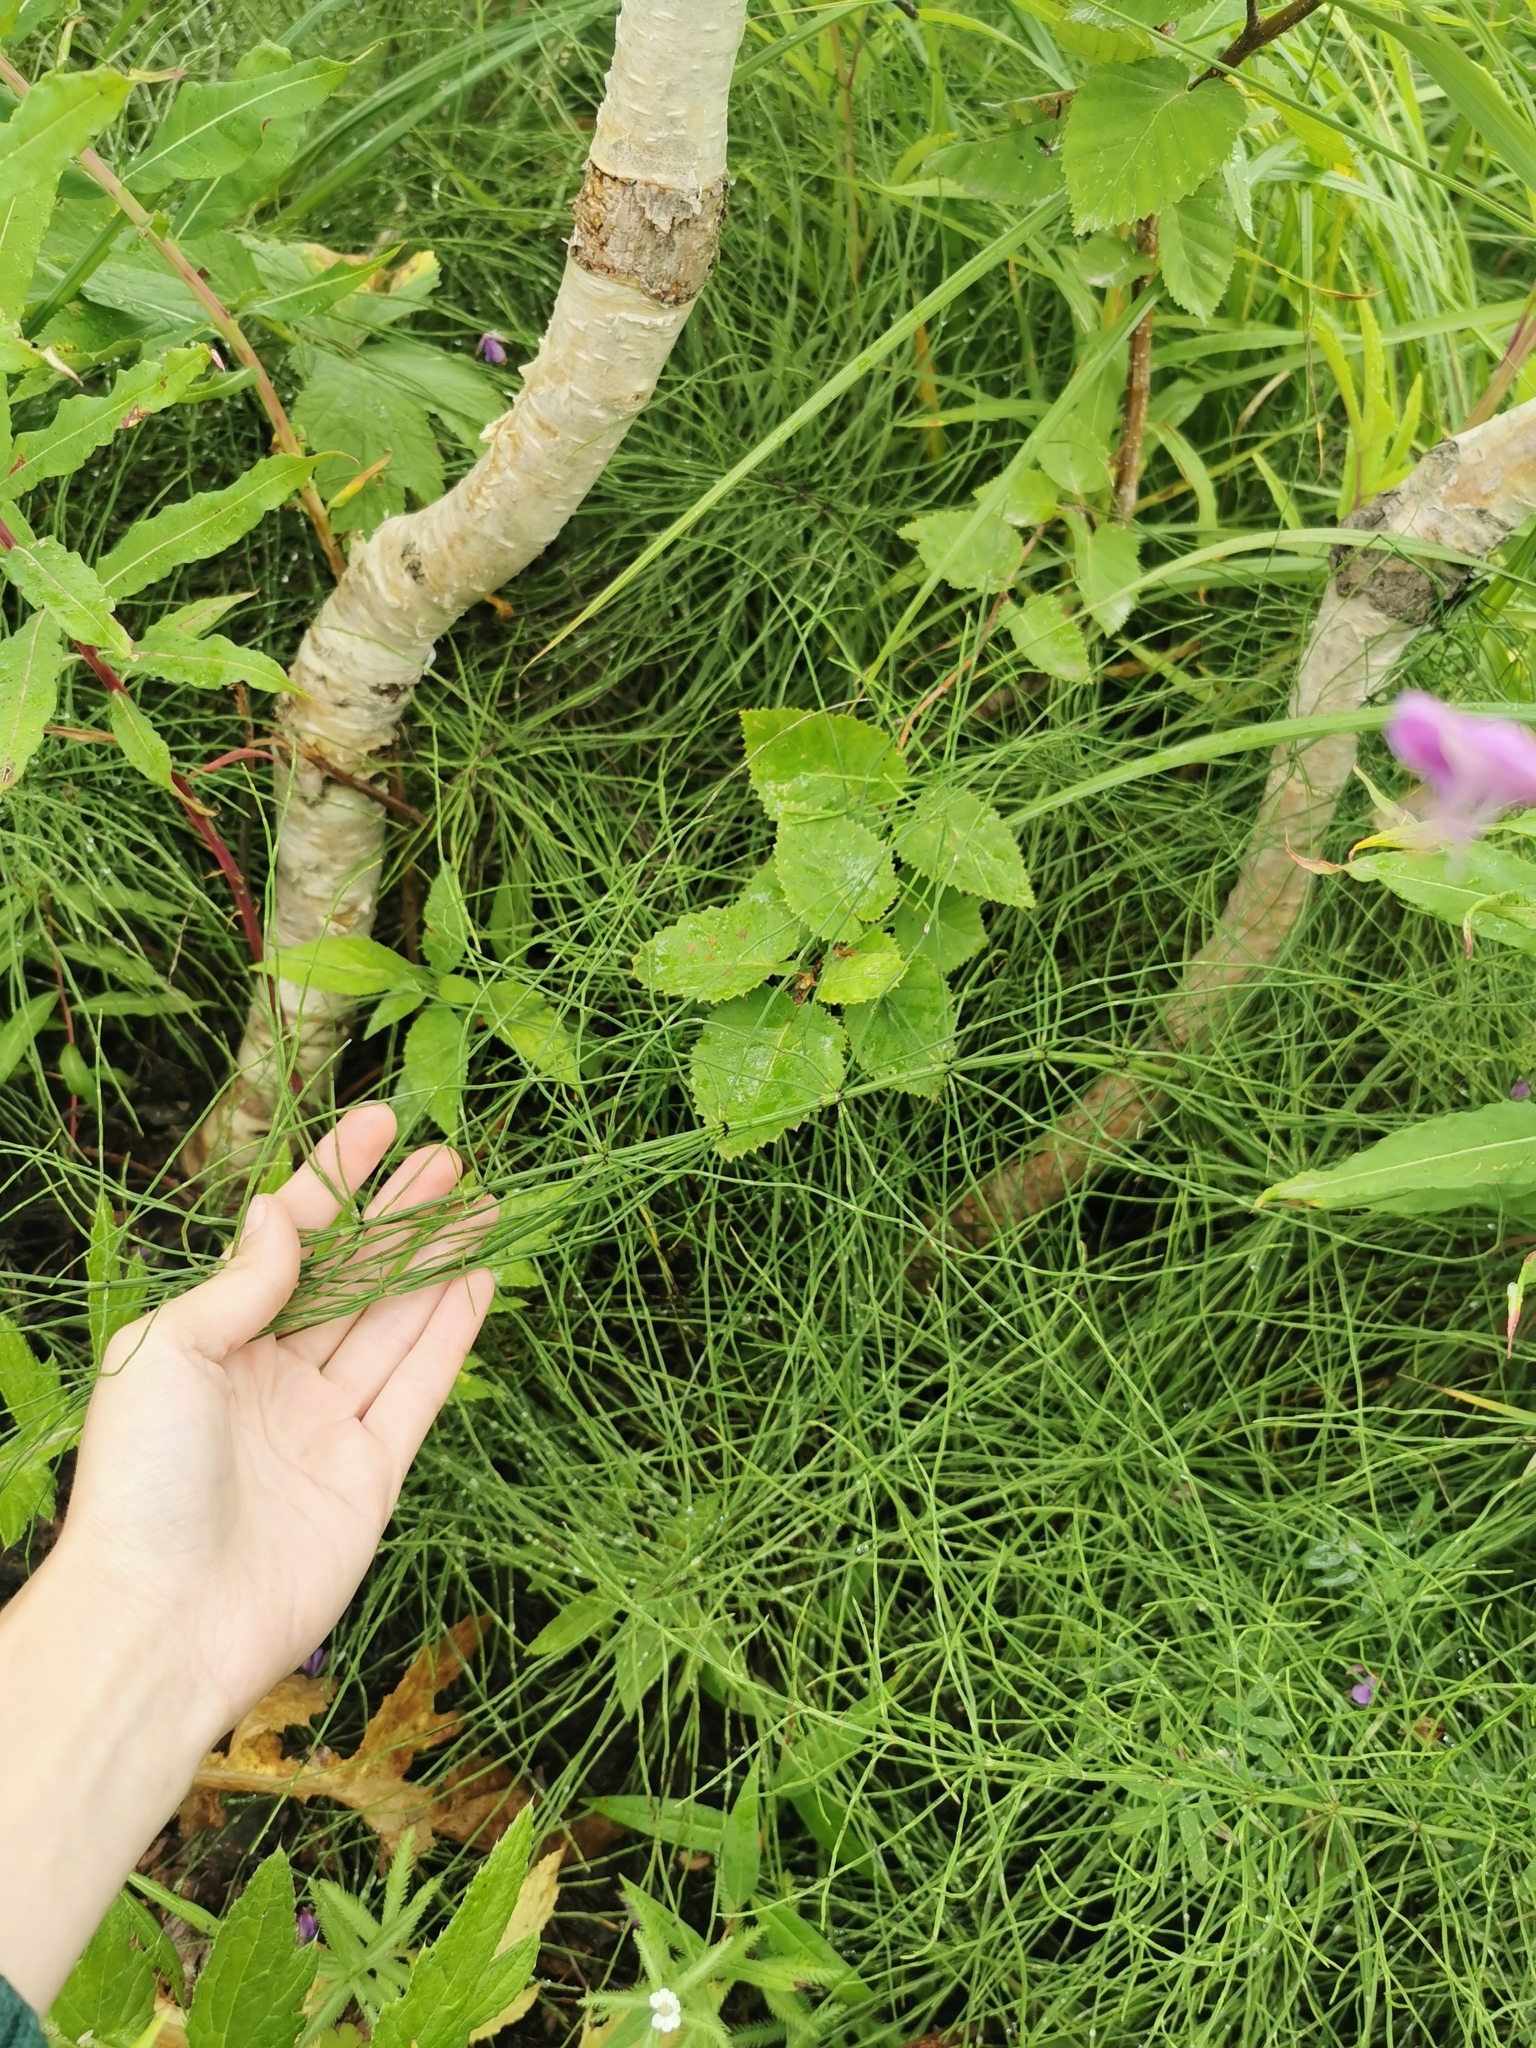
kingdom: Plantae
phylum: Tracheophyta
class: Polypodiopsida
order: Equisetales
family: Equisetaceae
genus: Equisetum
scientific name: Equisetum palustre
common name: Marsh horsetail
